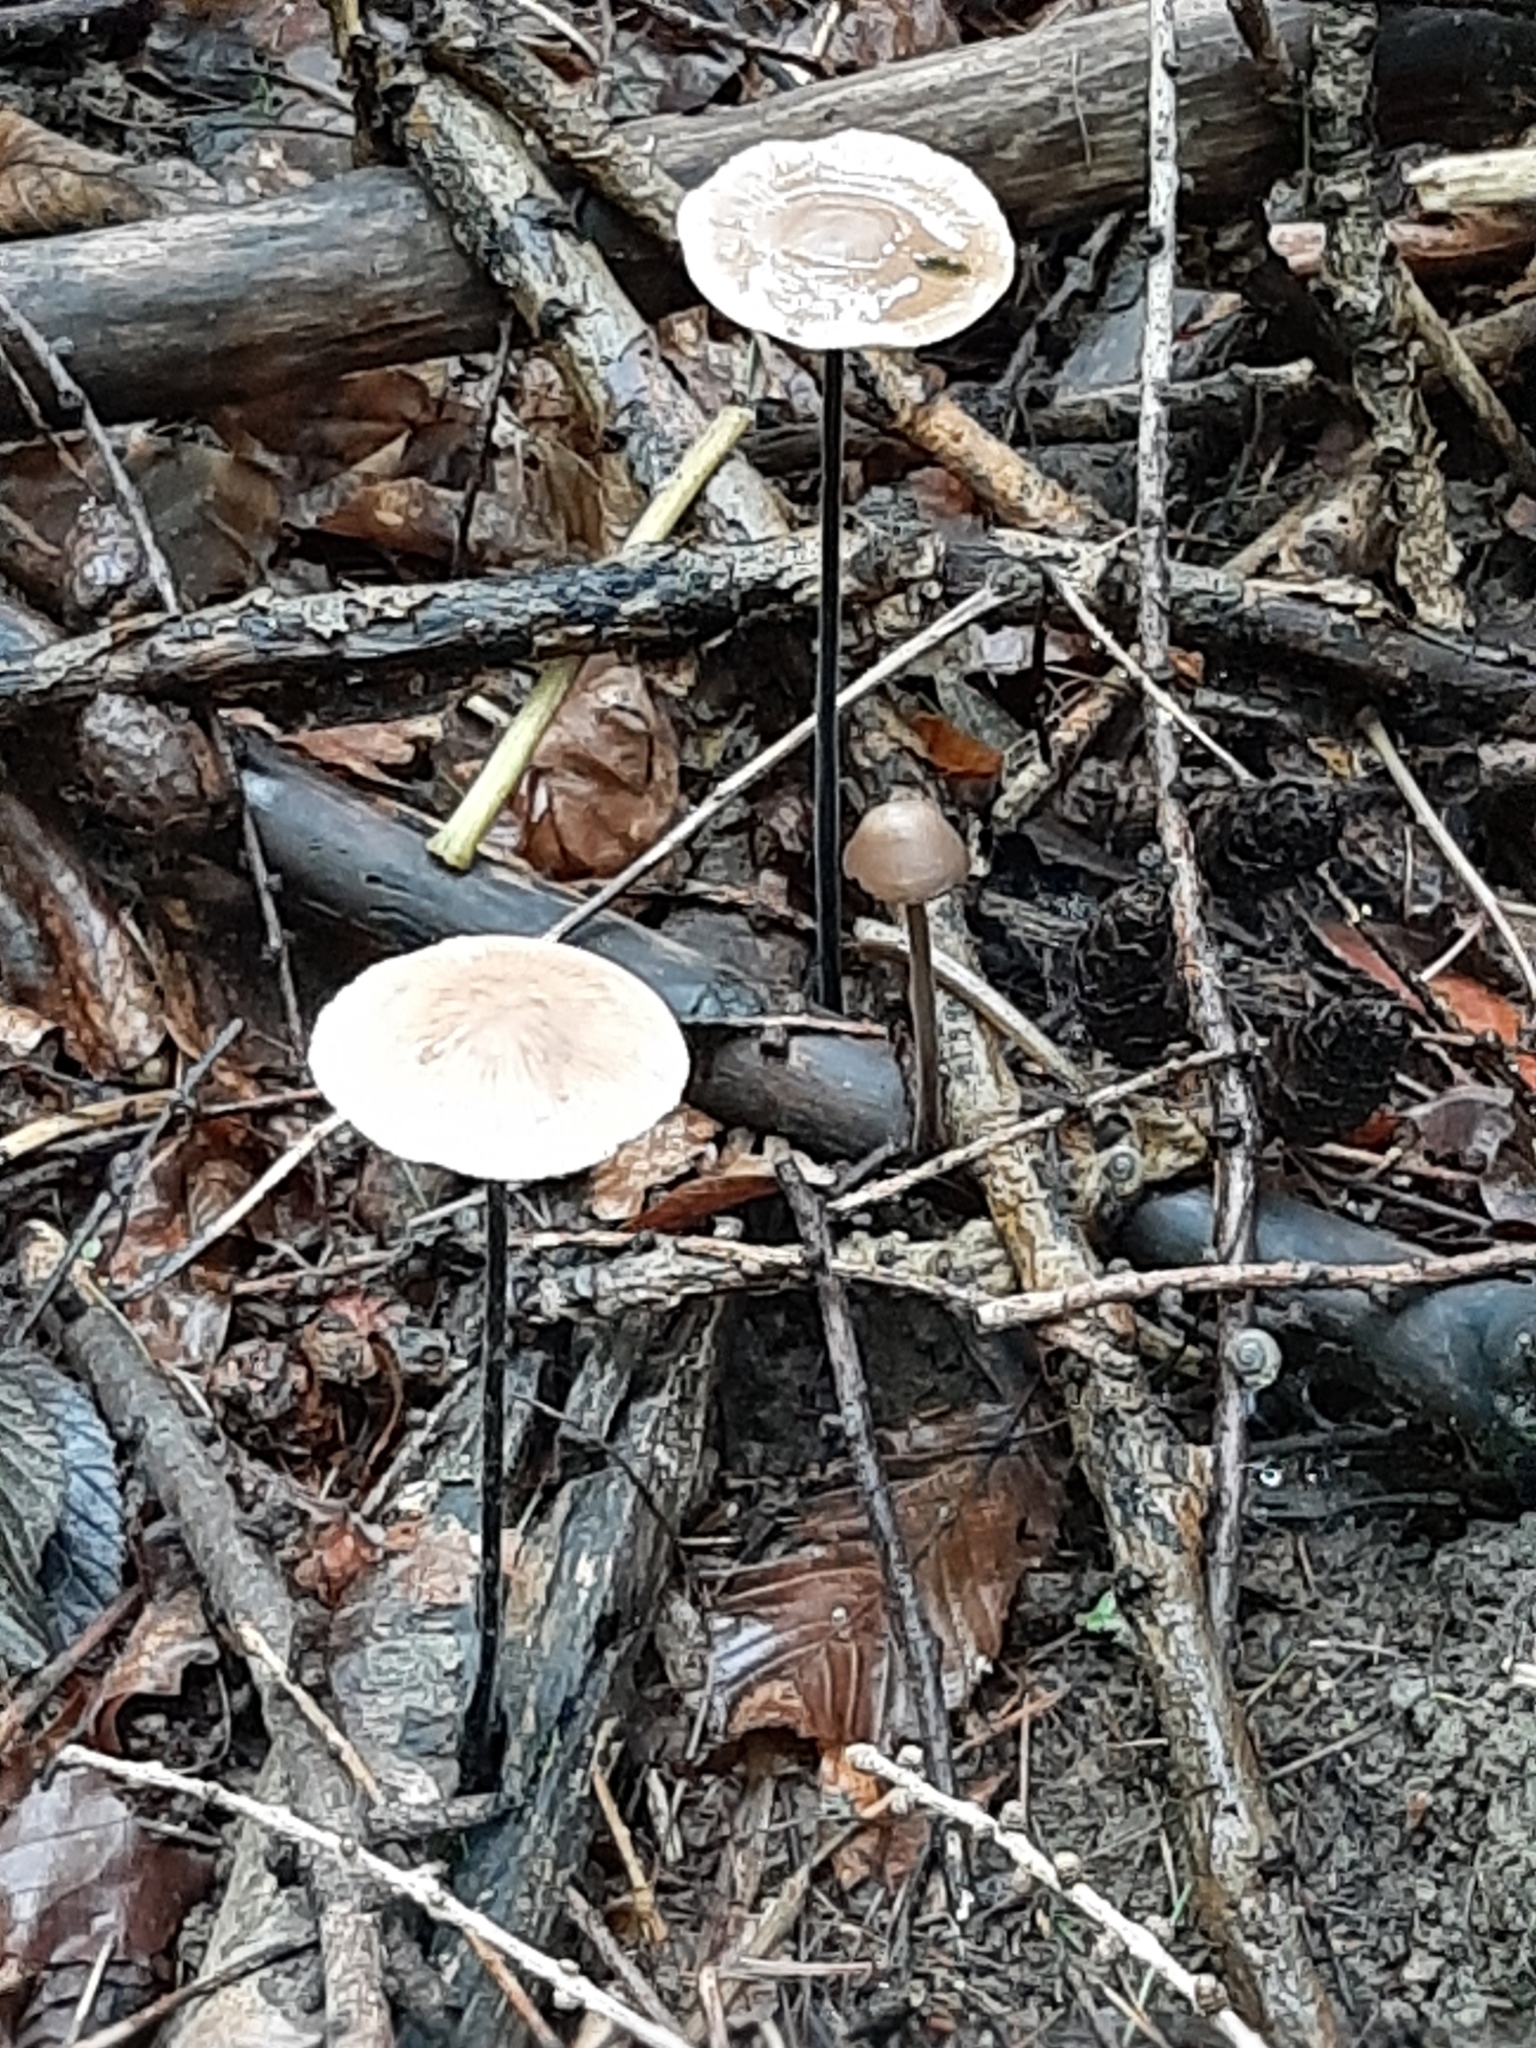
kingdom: Fungi
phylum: Basidiomycota
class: Agaricomycetes
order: Agaricales
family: Omphalotaceae
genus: Mycetinis
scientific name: Mycetinis alliaceus
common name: Garlic parachute
